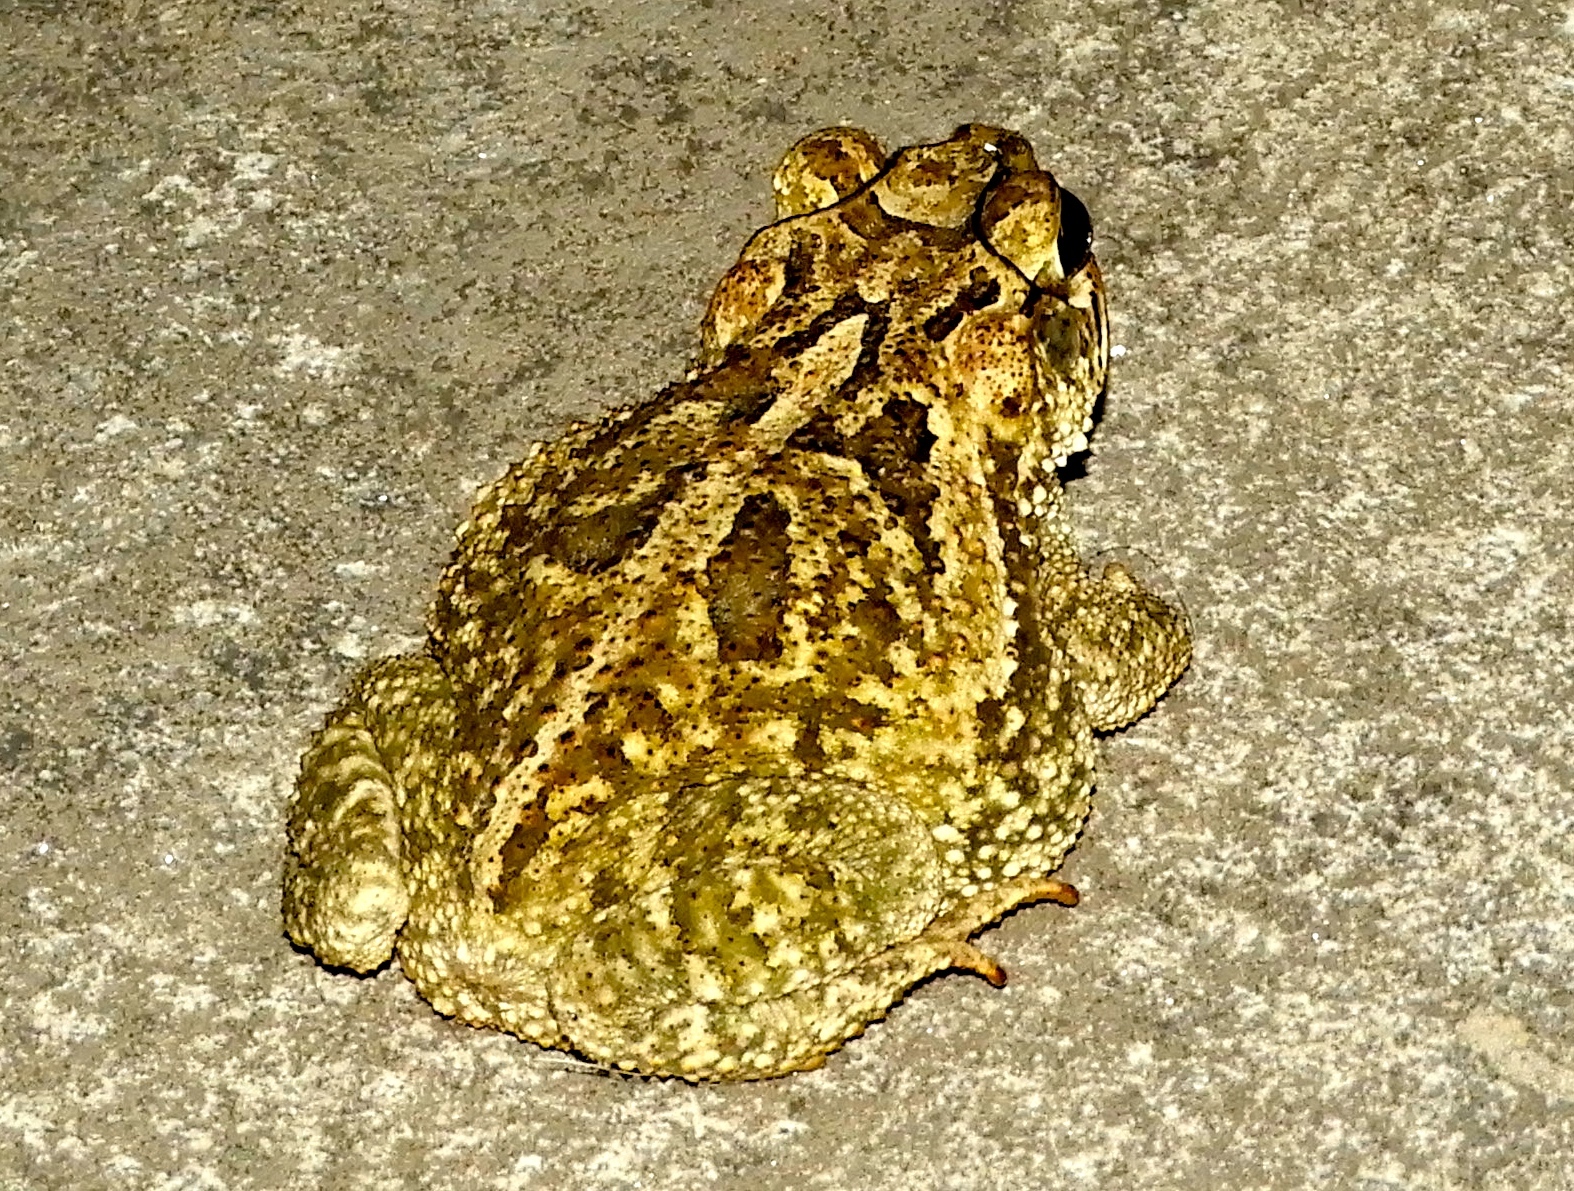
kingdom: Animalia
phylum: Chordata
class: Amphibia
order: Anura
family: Bufonidae
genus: Incilius
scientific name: Incilius mazatlanensis
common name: Sinaloa toad
